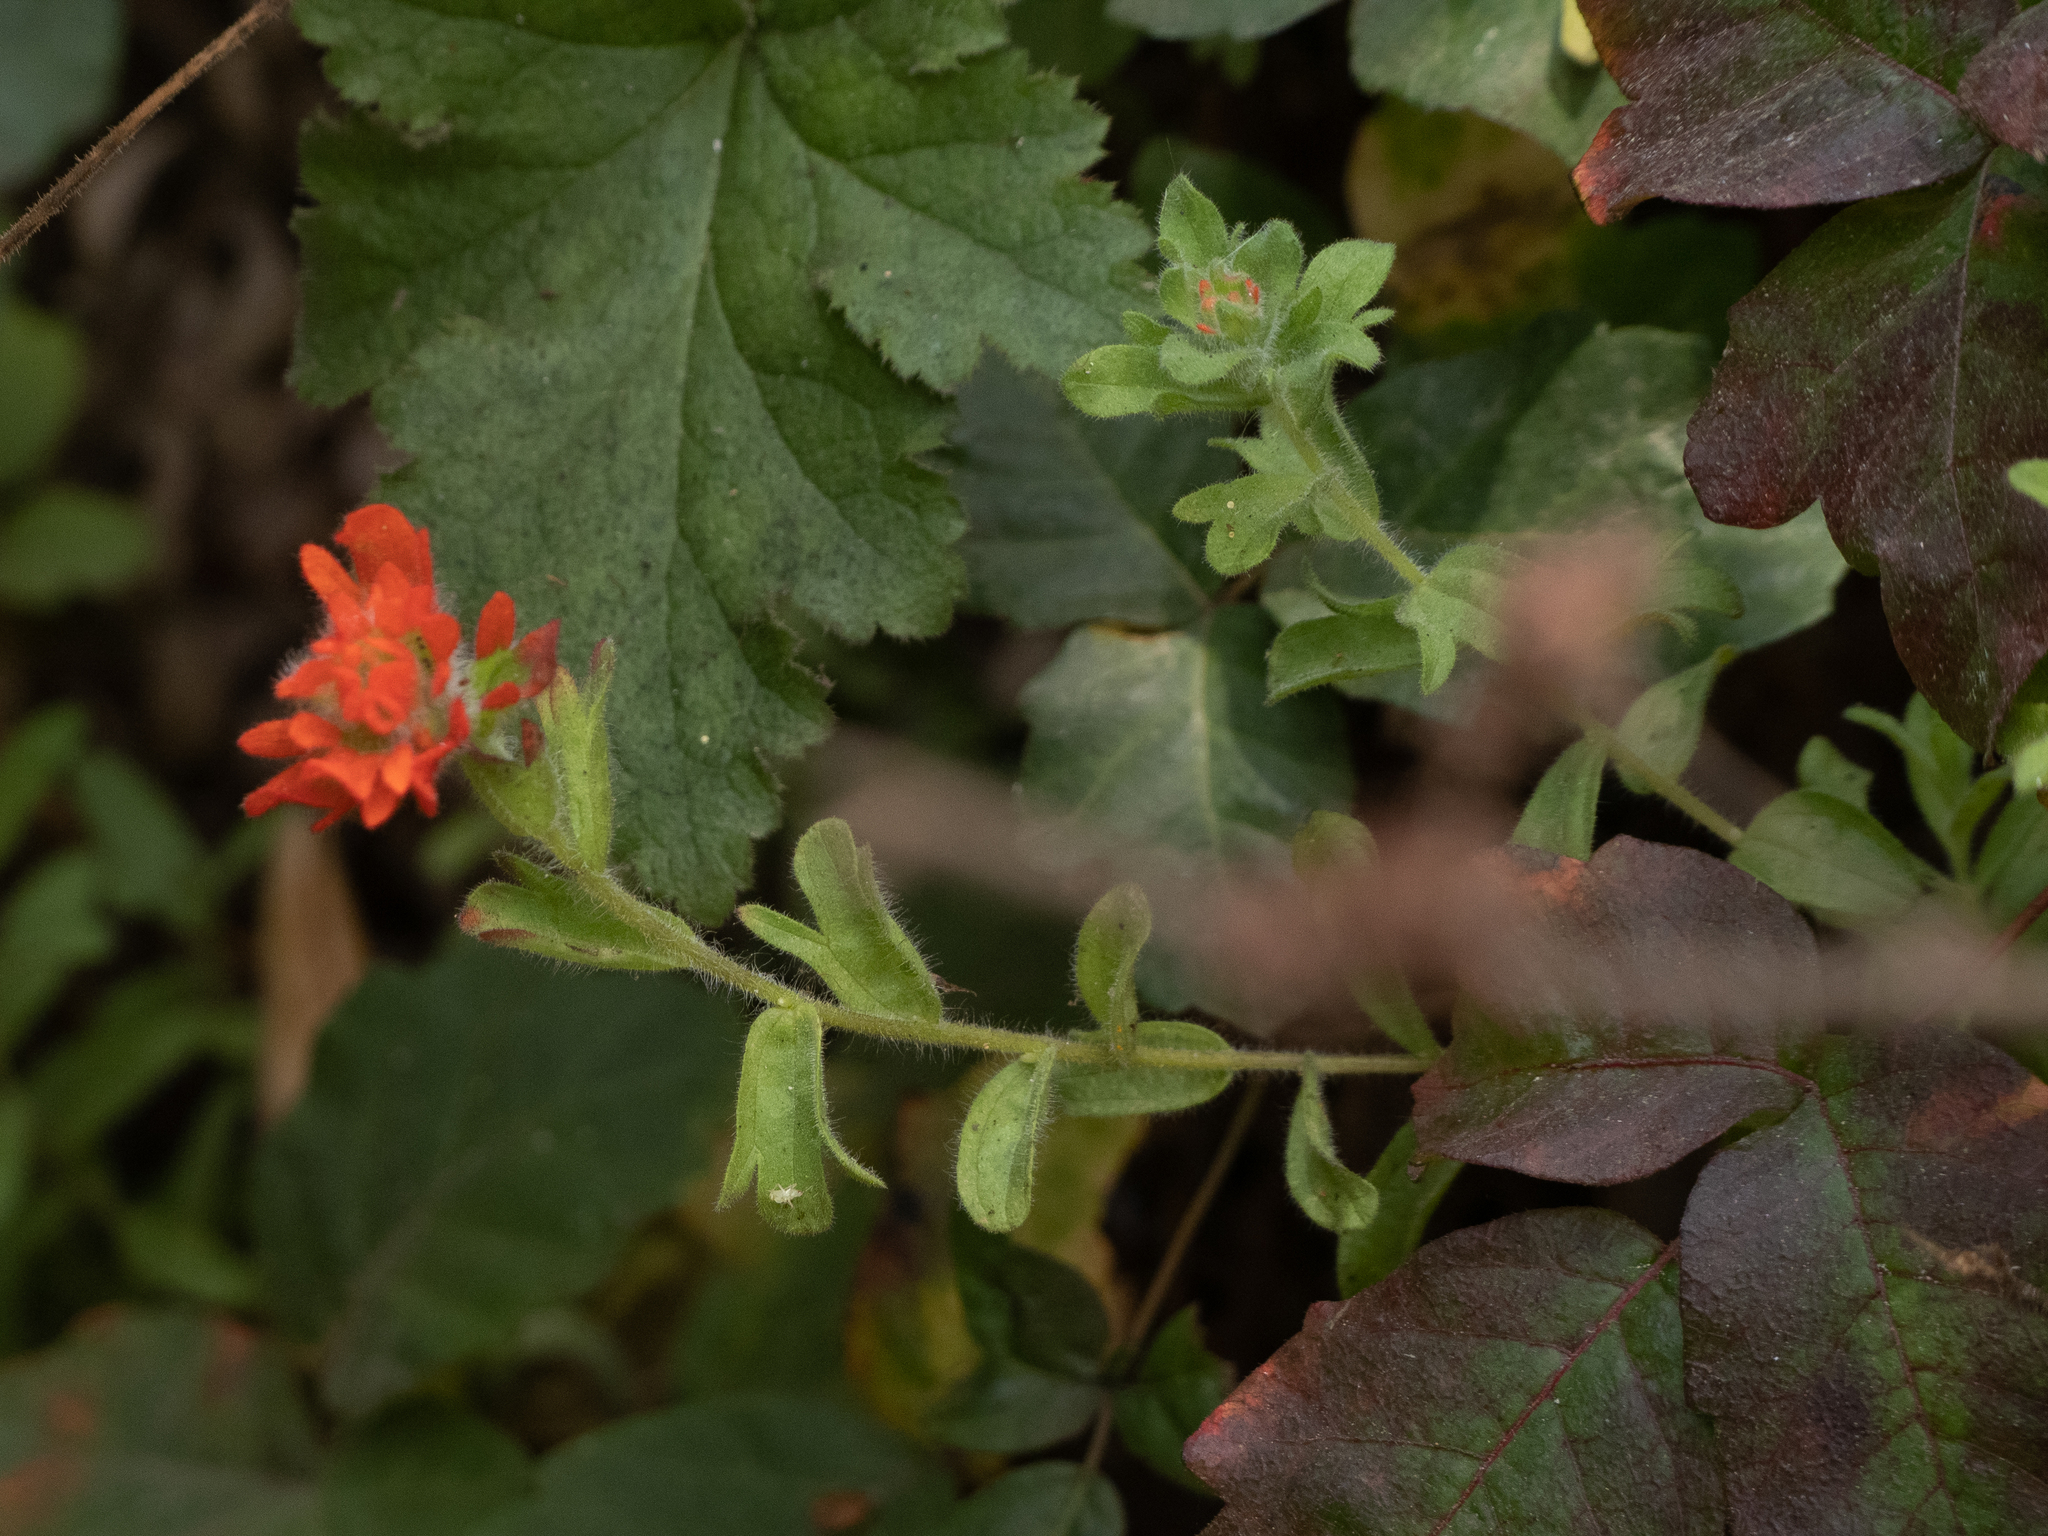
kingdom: Plantae
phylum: Tracheophyta
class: Magnoliopsida
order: Lamiales
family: Orobanchaceae
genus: Castilleja
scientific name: Castilleja wightii
